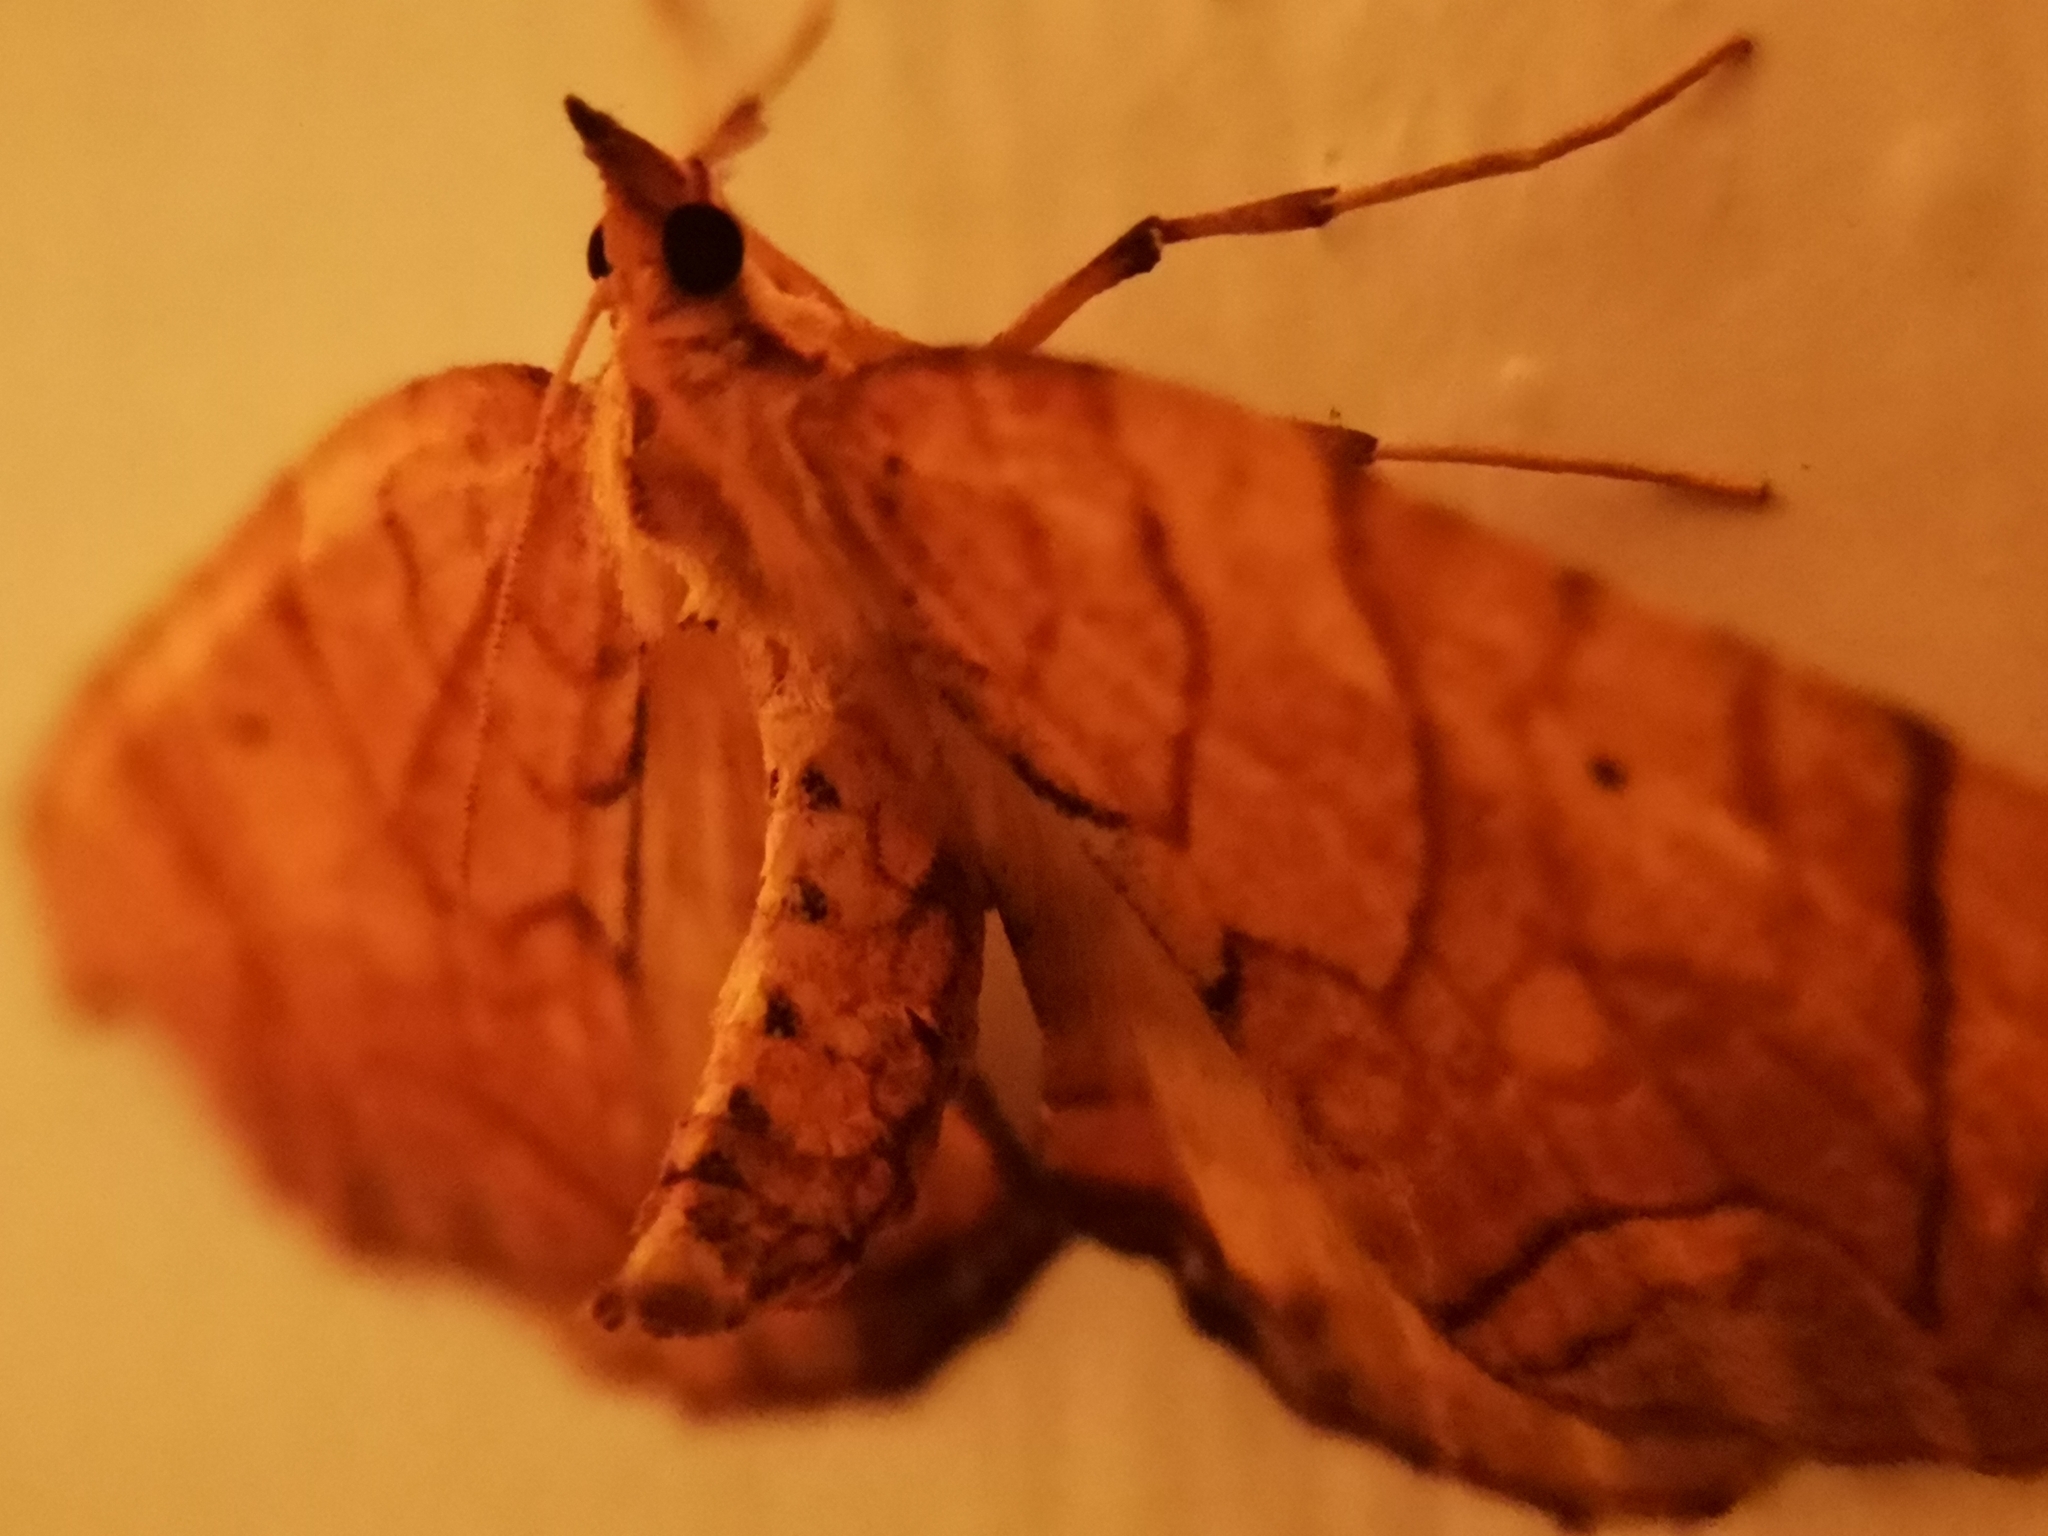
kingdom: Animalia
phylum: Arthropoda
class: Insecta
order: Lepidoptera
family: Geometridae
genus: Eulithis
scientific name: Eulithis
